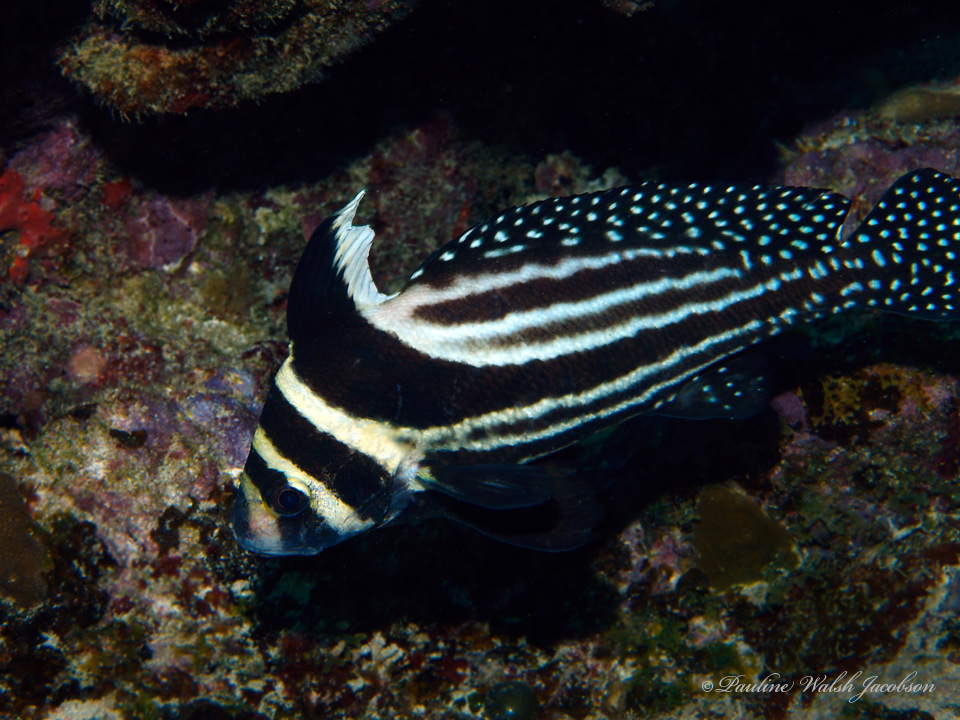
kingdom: Animalia
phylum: Chordata
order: Perciformes
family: Sciaenidae
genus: Equetus
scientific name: Equetus punctatus
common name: Spotted drum
